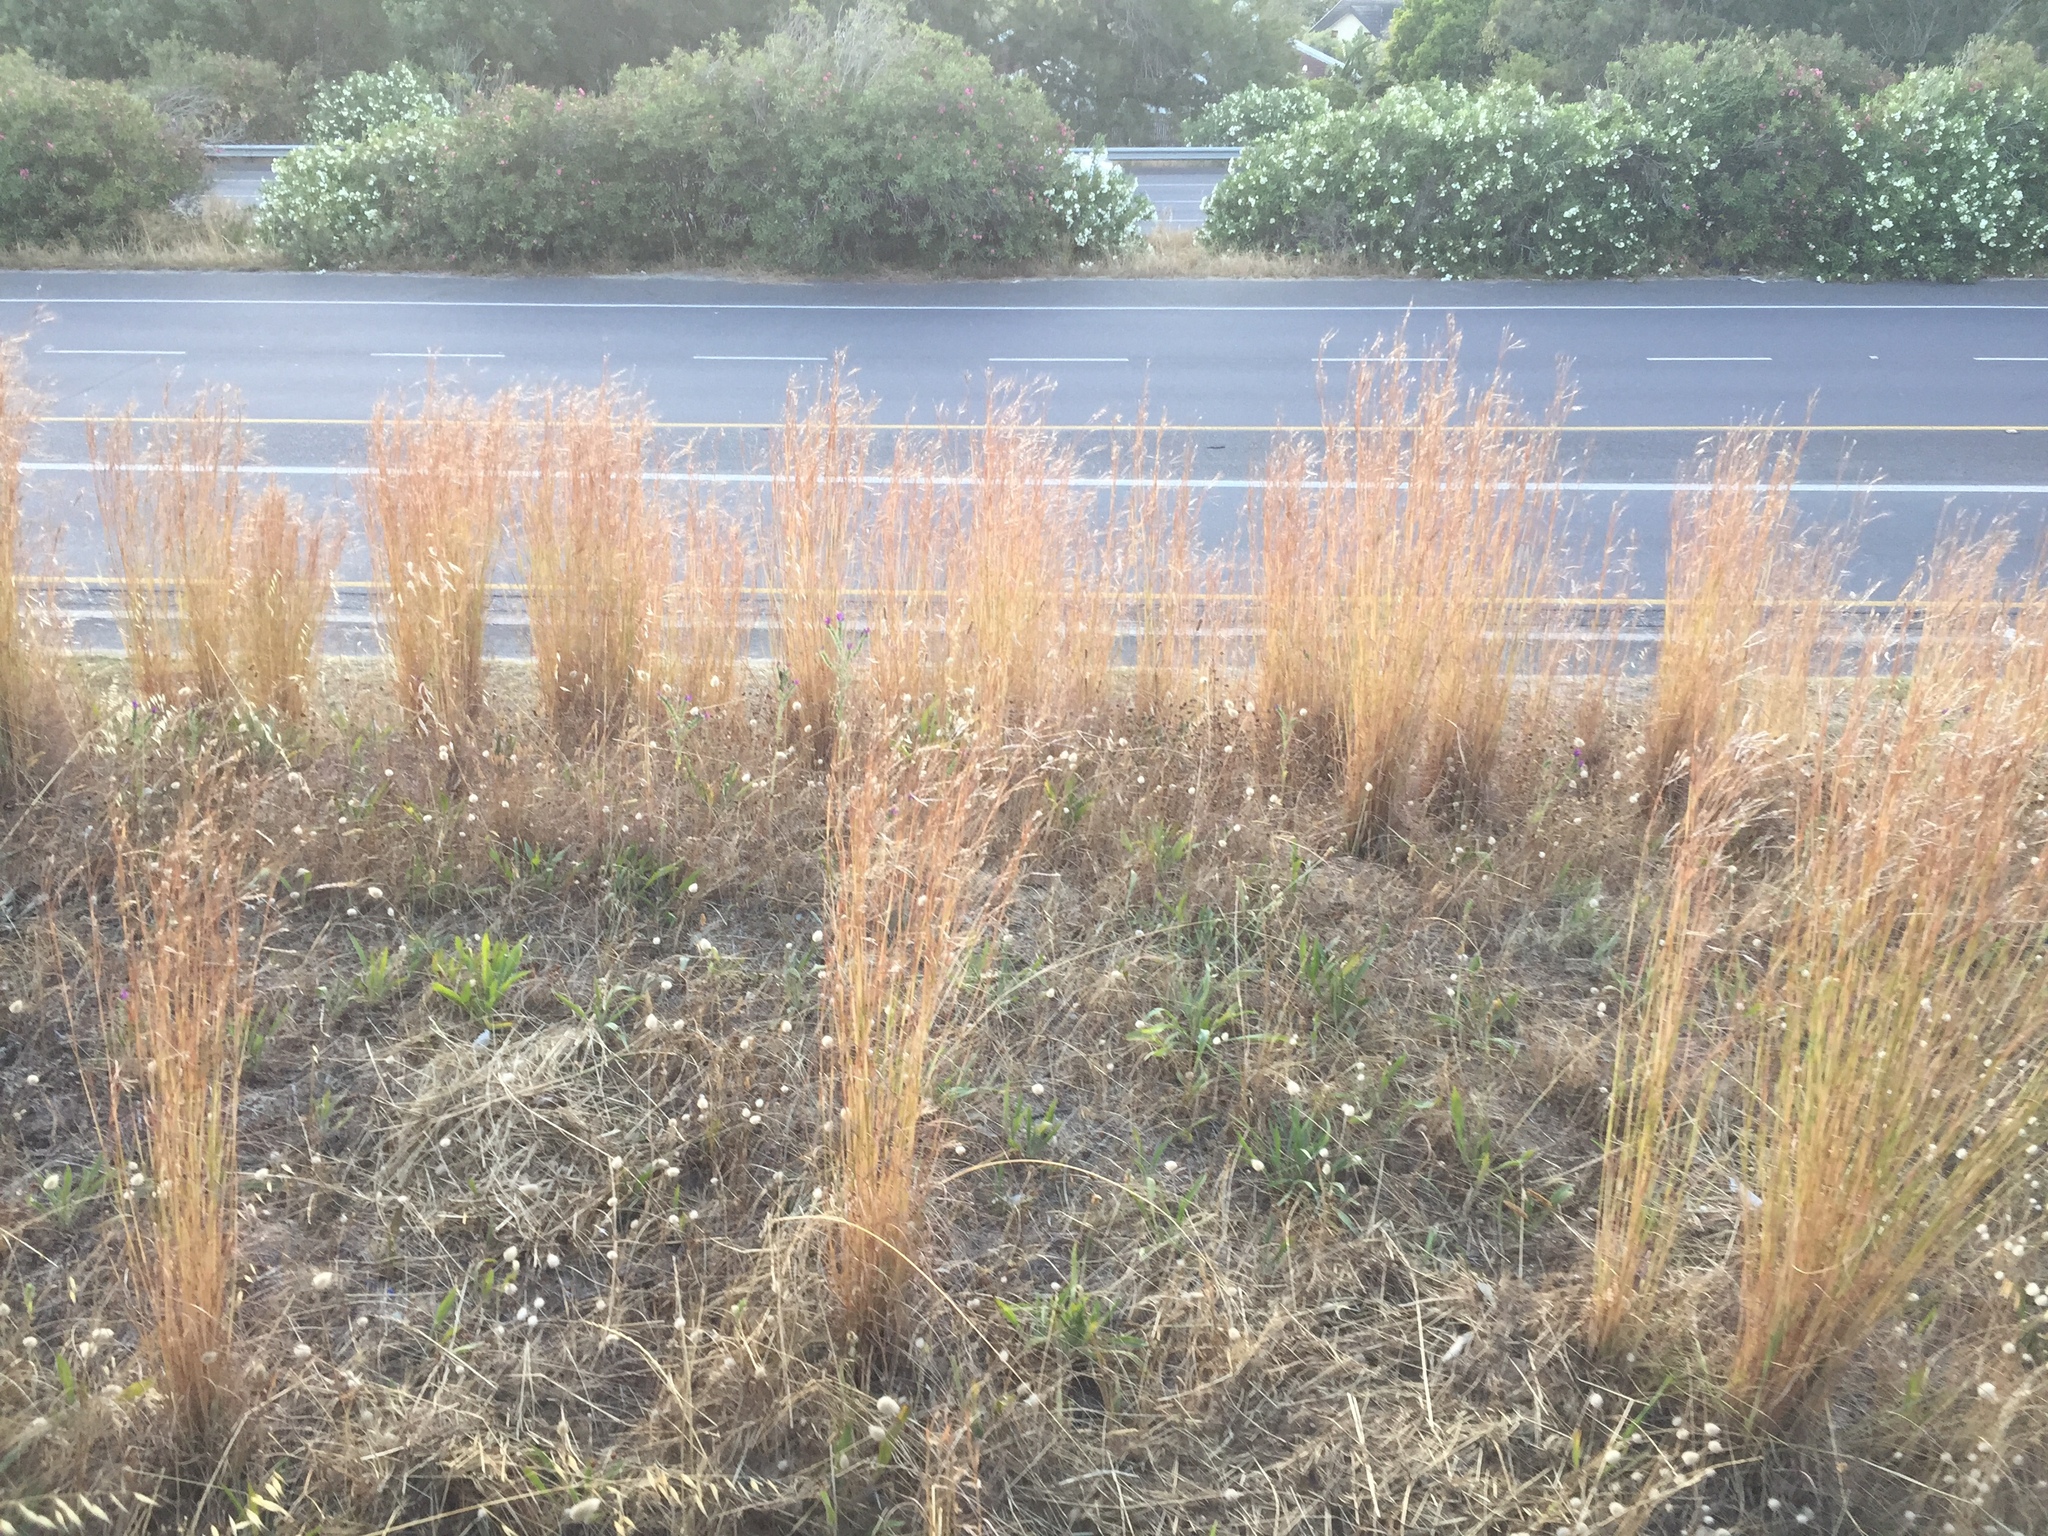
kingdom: Plantae
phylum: Tracheophyta
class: Liliopsida
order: Poales
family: Poaceae
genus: Hyparrhenia
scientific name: Hyparrhenia hirta
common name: Thatching grass
